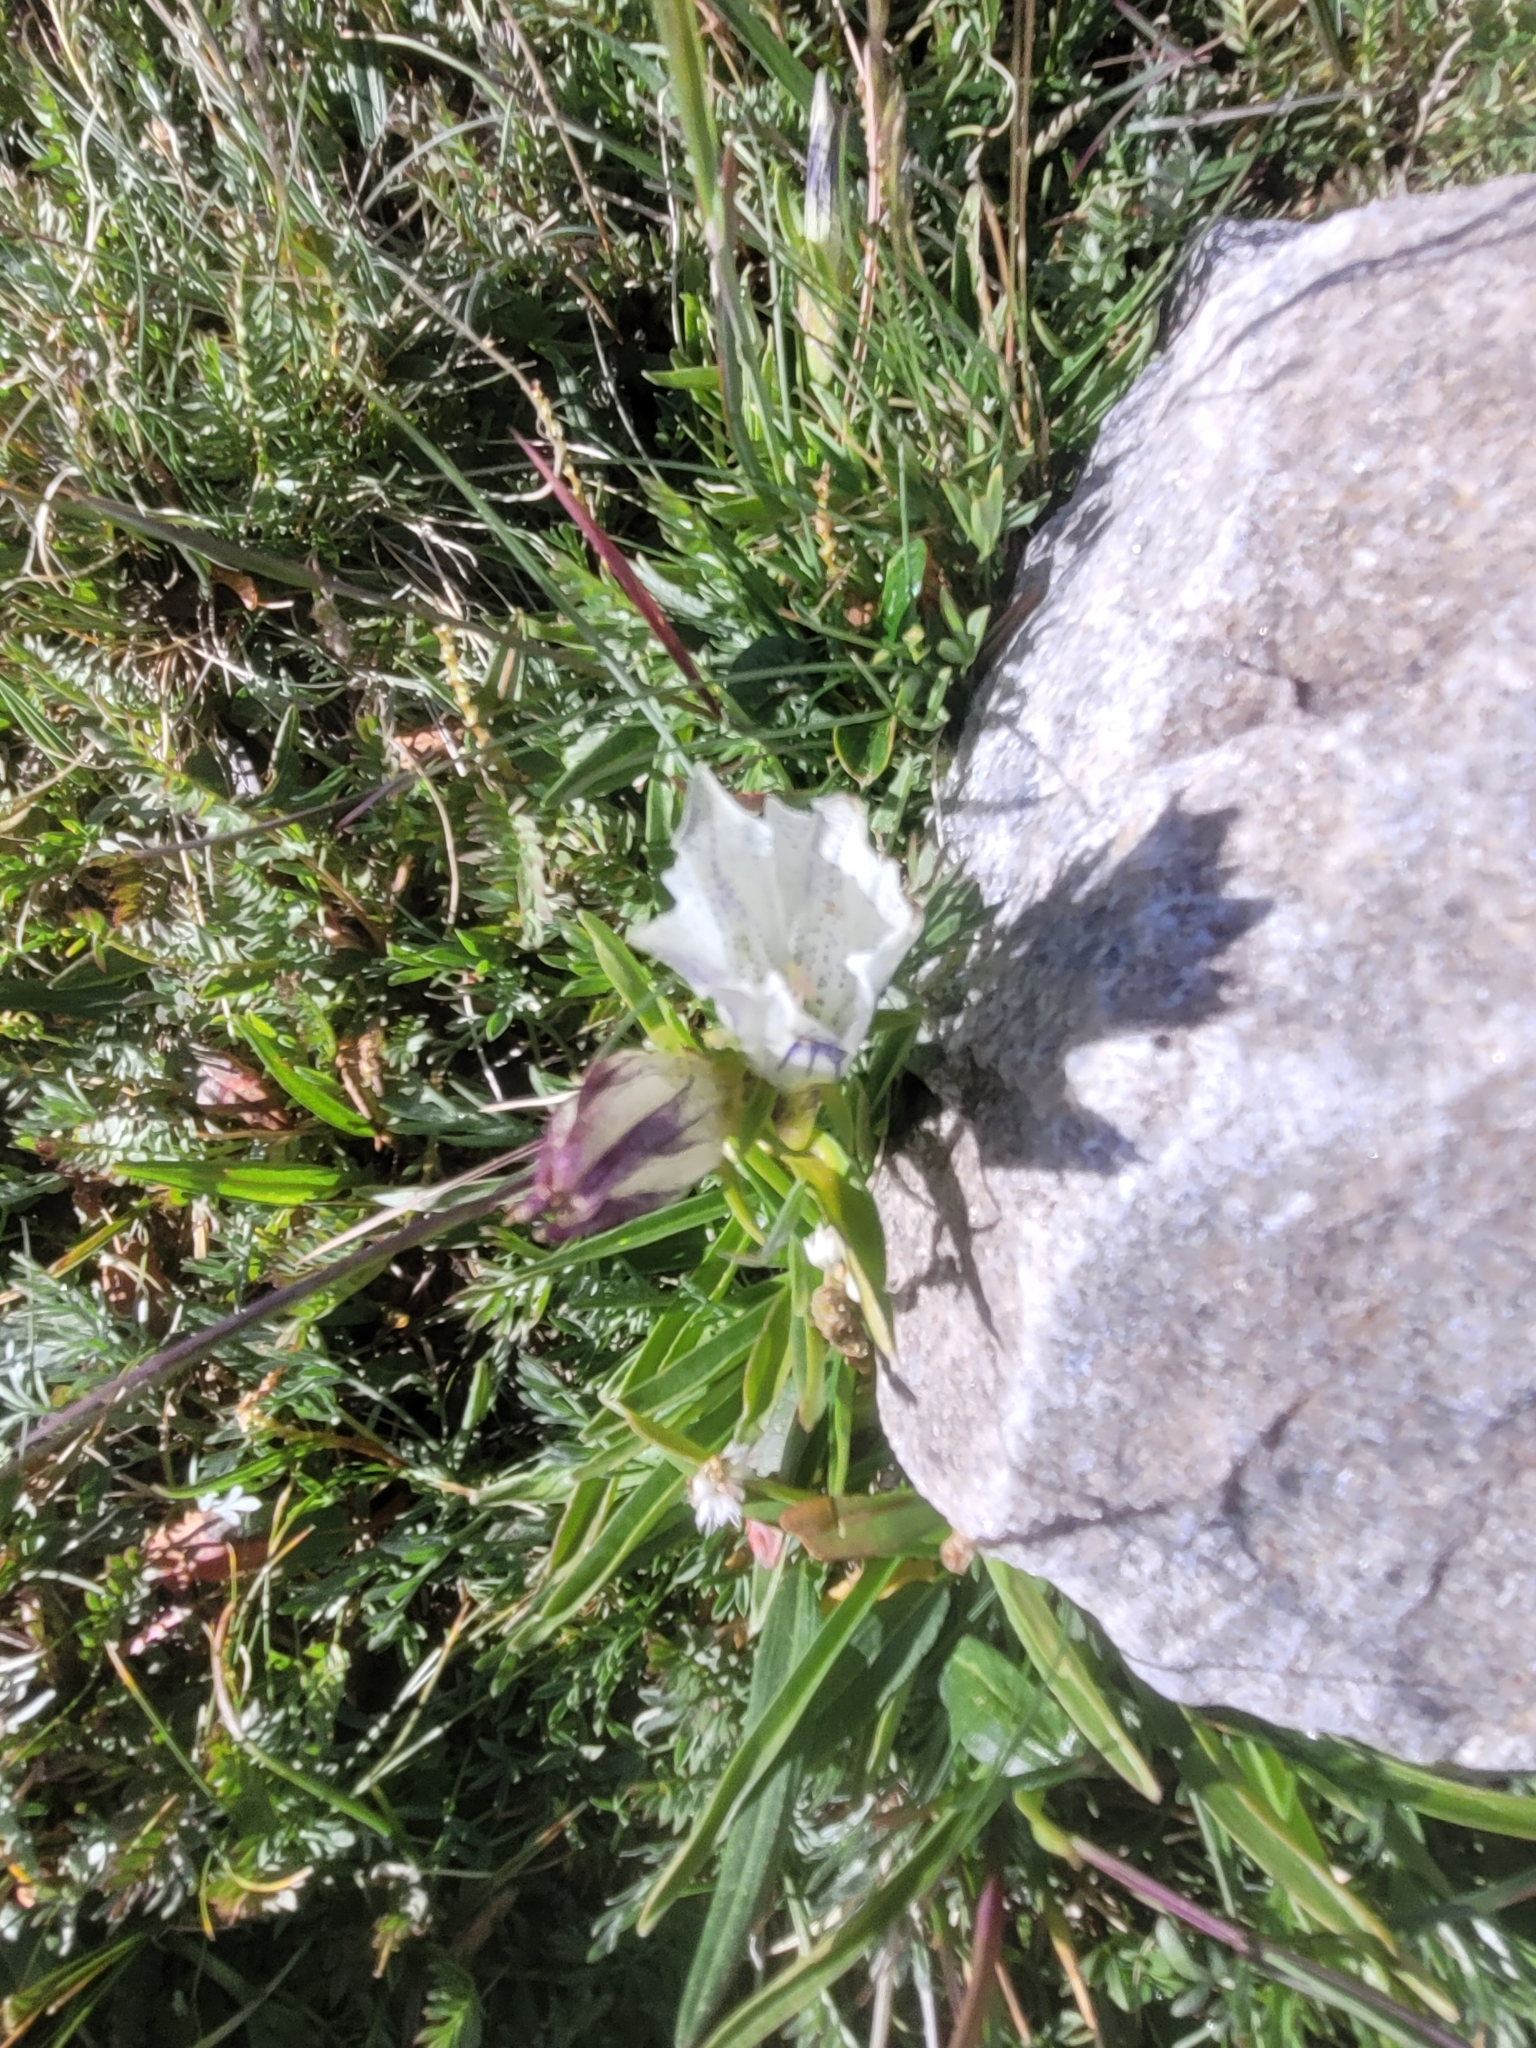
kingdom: Plantae
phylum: Tracheophyta
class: Magnoliopsida
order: Gentianales
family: Gentianaceae
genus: Gentiana
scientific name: Gentiana algida
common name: Arctic gentian
